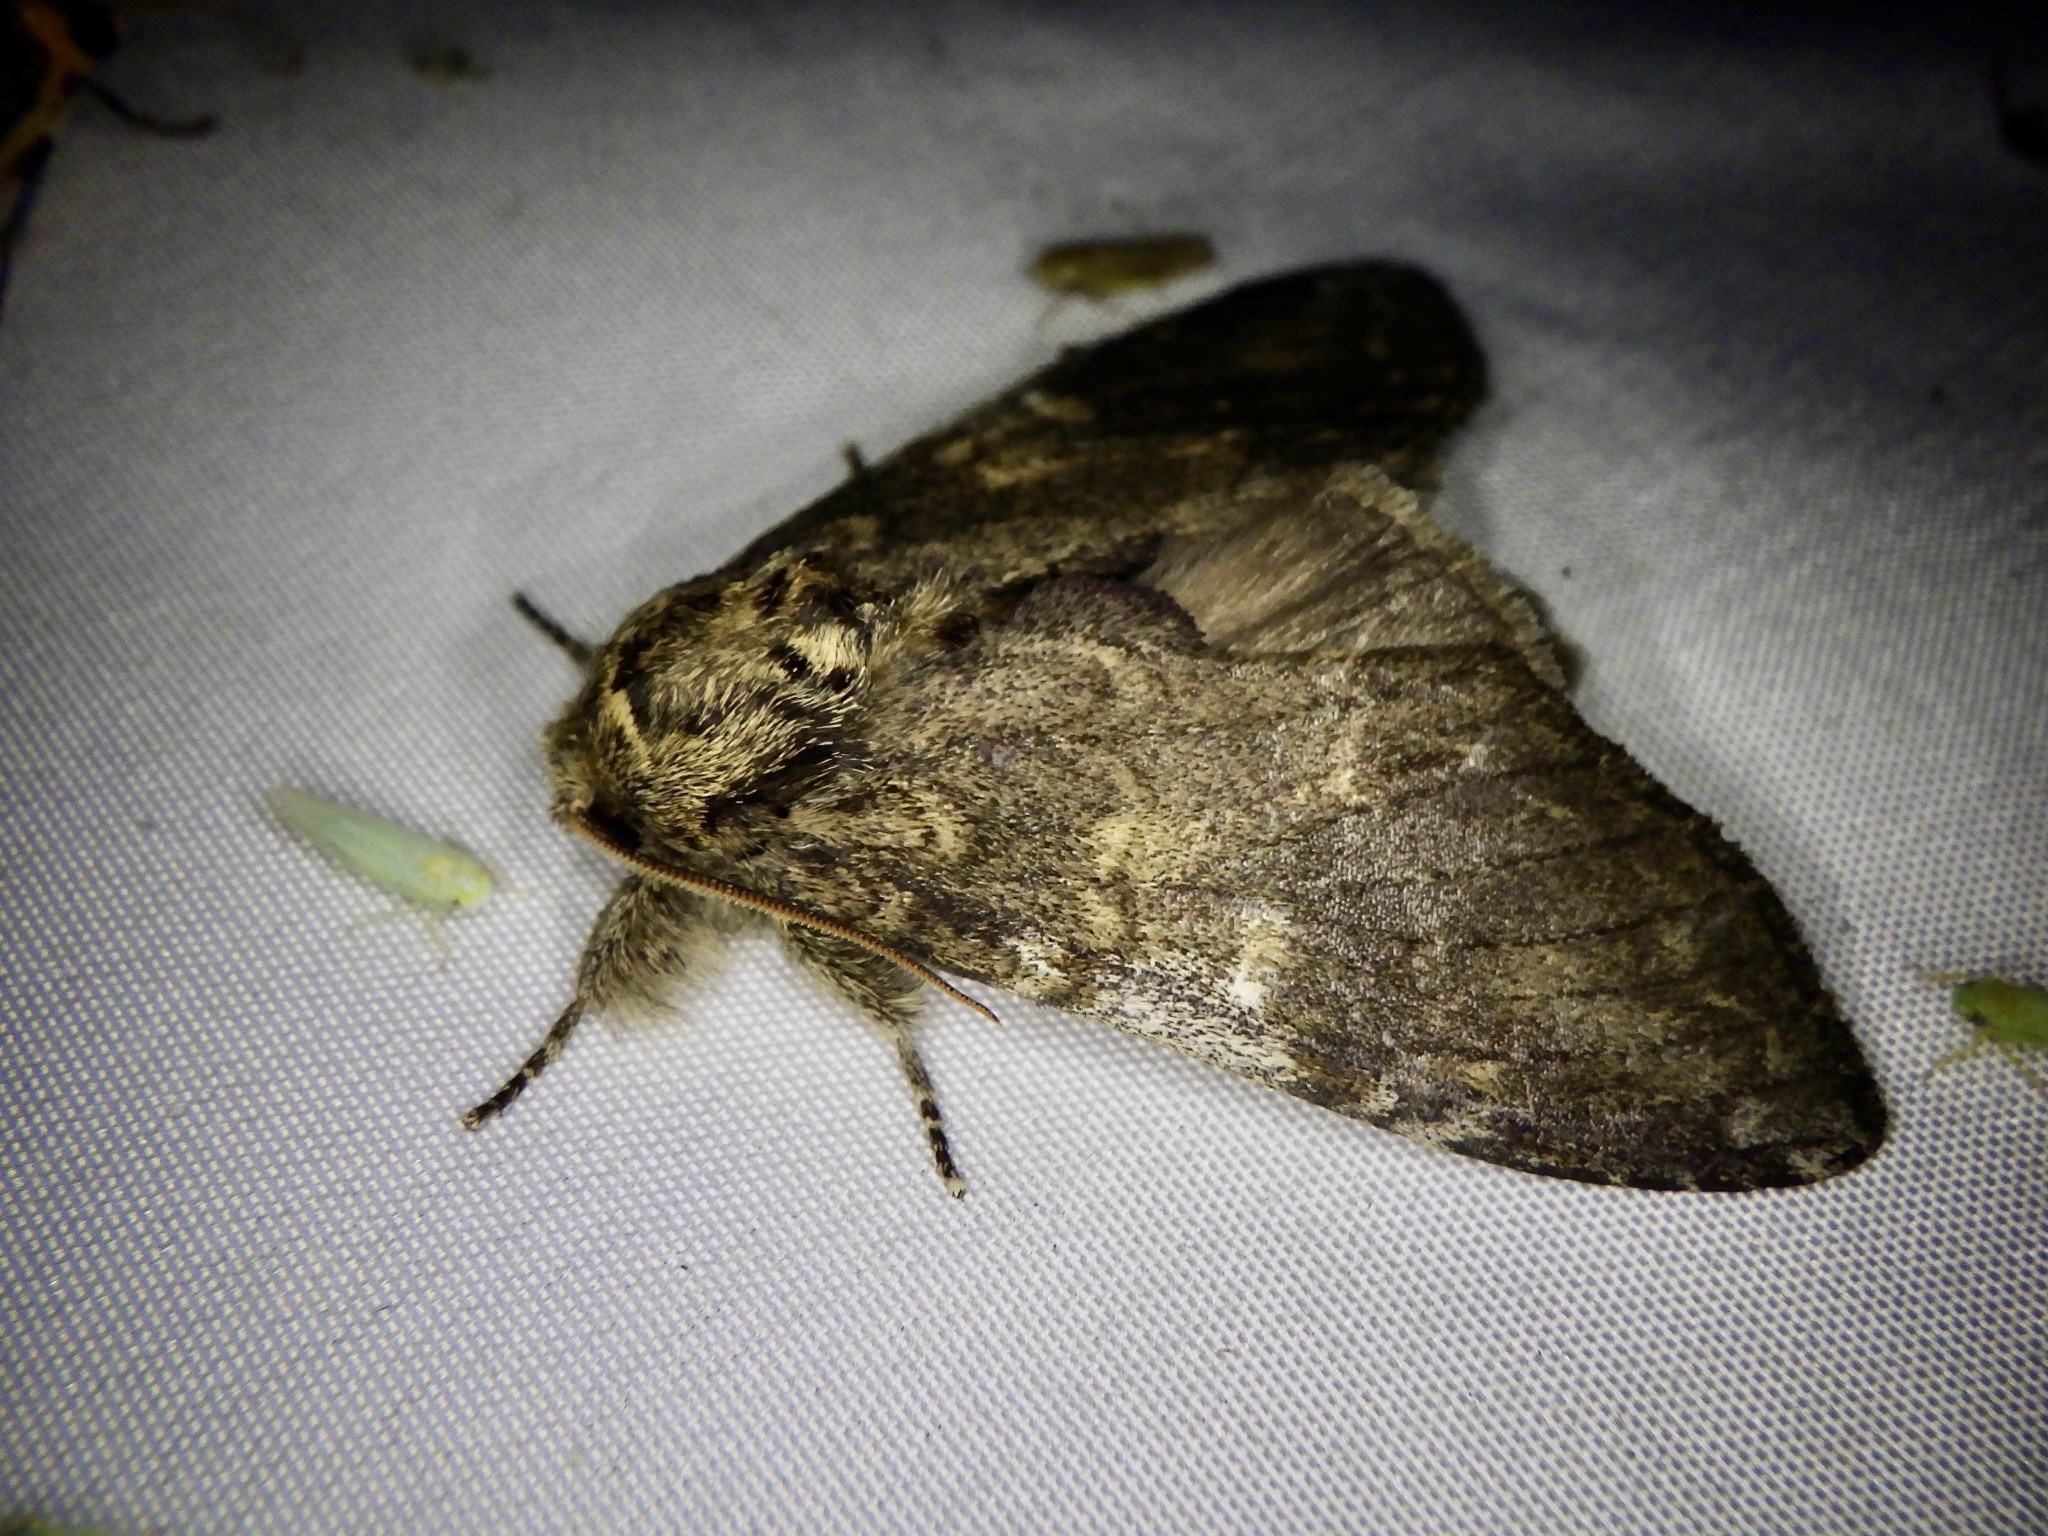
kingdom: Animalia
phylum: Arthropoda
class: Insecta
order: Lepidoptera
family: Notodontidae
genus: Peridea
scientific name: Peridea gigantea
